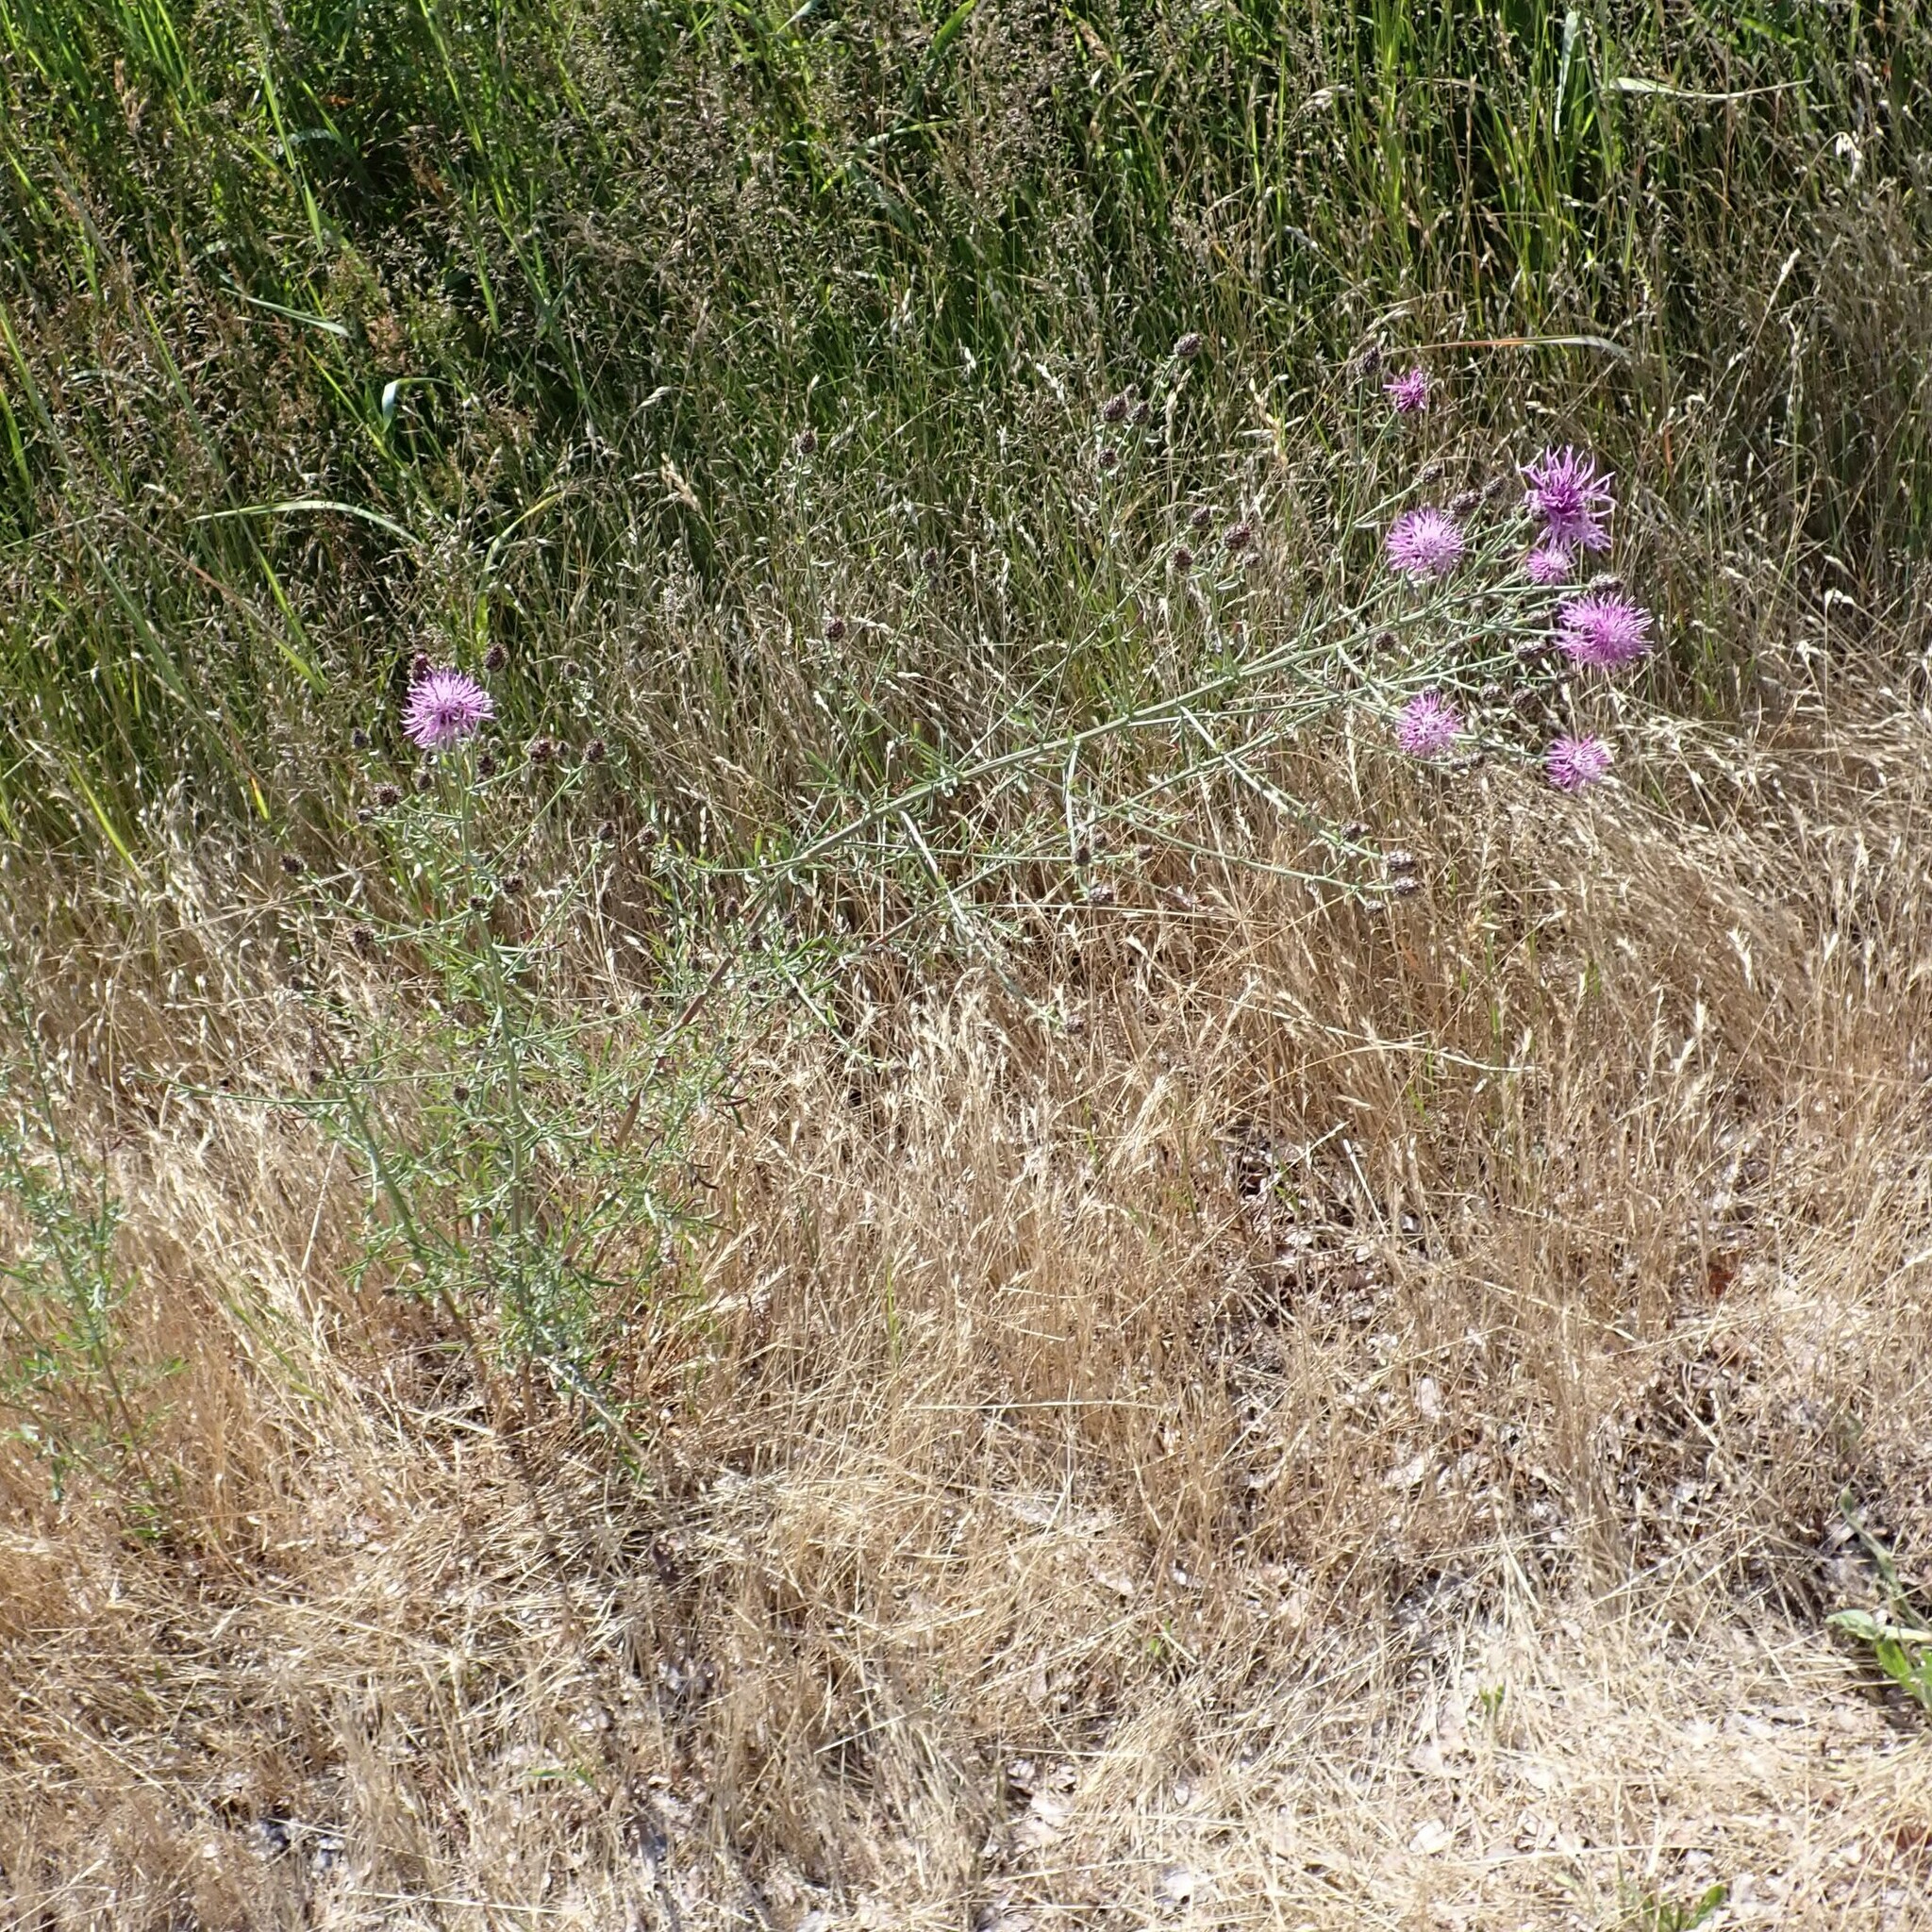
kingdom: Plantae
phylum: Tracheophyta
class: Magnoliopsida
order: Asterales
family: Asteraceae
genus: Centaurea
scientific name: Centaurea stoebe
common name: Spotted knapweed
